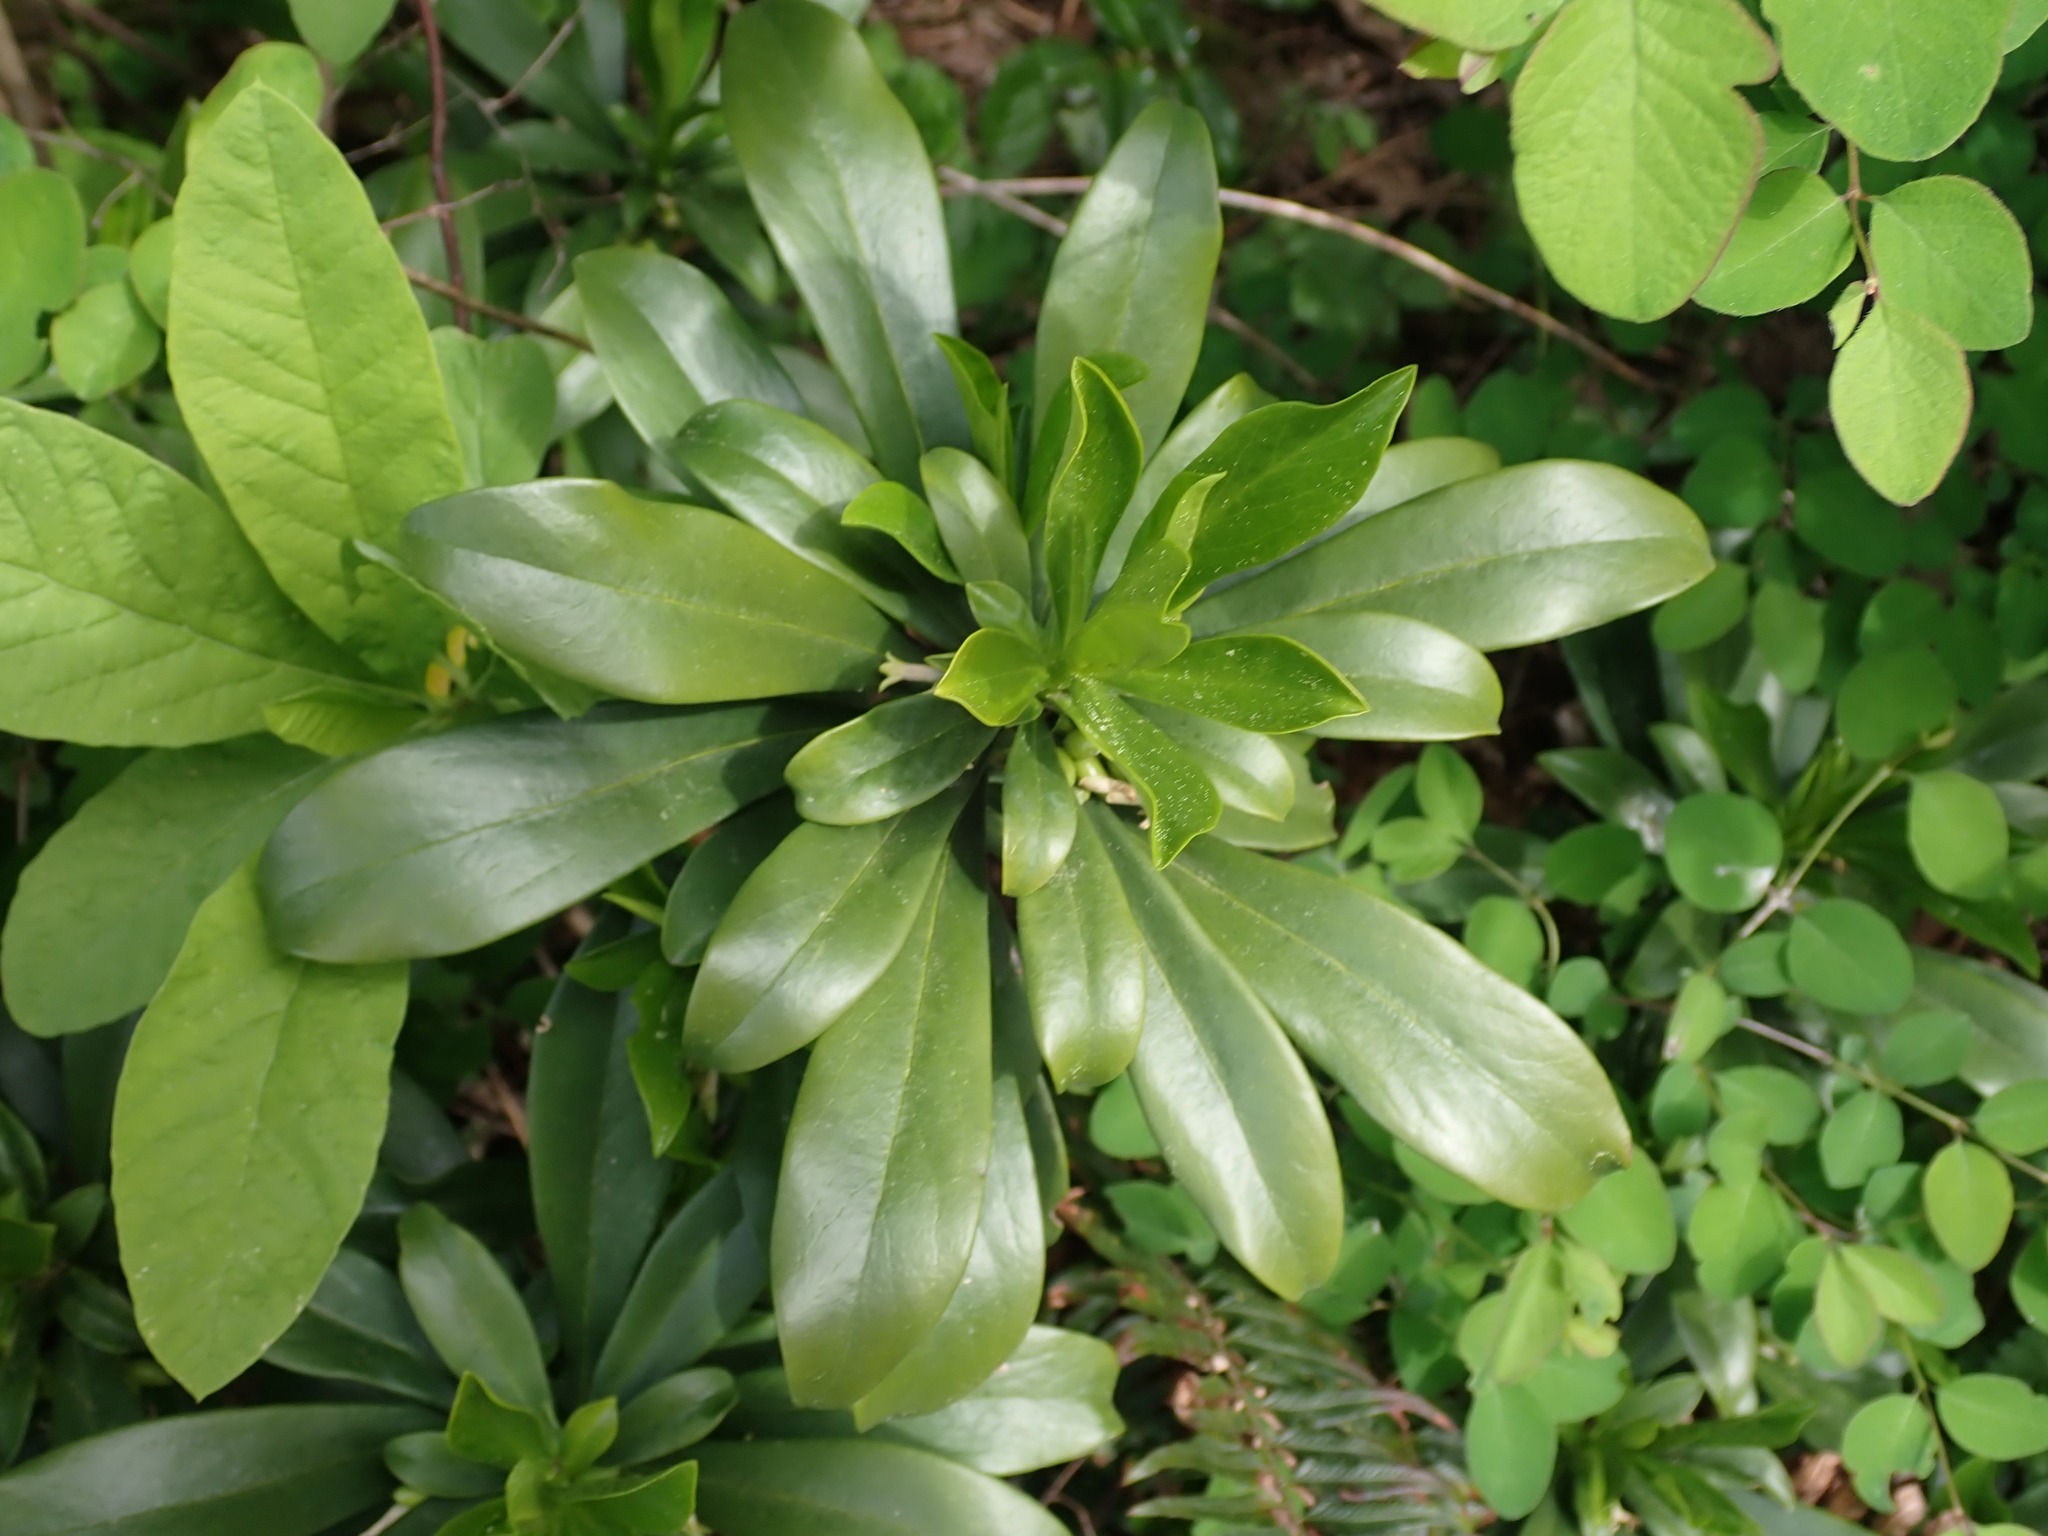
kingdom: Plantae
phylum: Tracheophyta
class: Magnoliopsida
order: Malvales
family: Thymelaeaceae
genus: Daphne
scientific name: Daphne laureola
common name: Spurge-laurel
